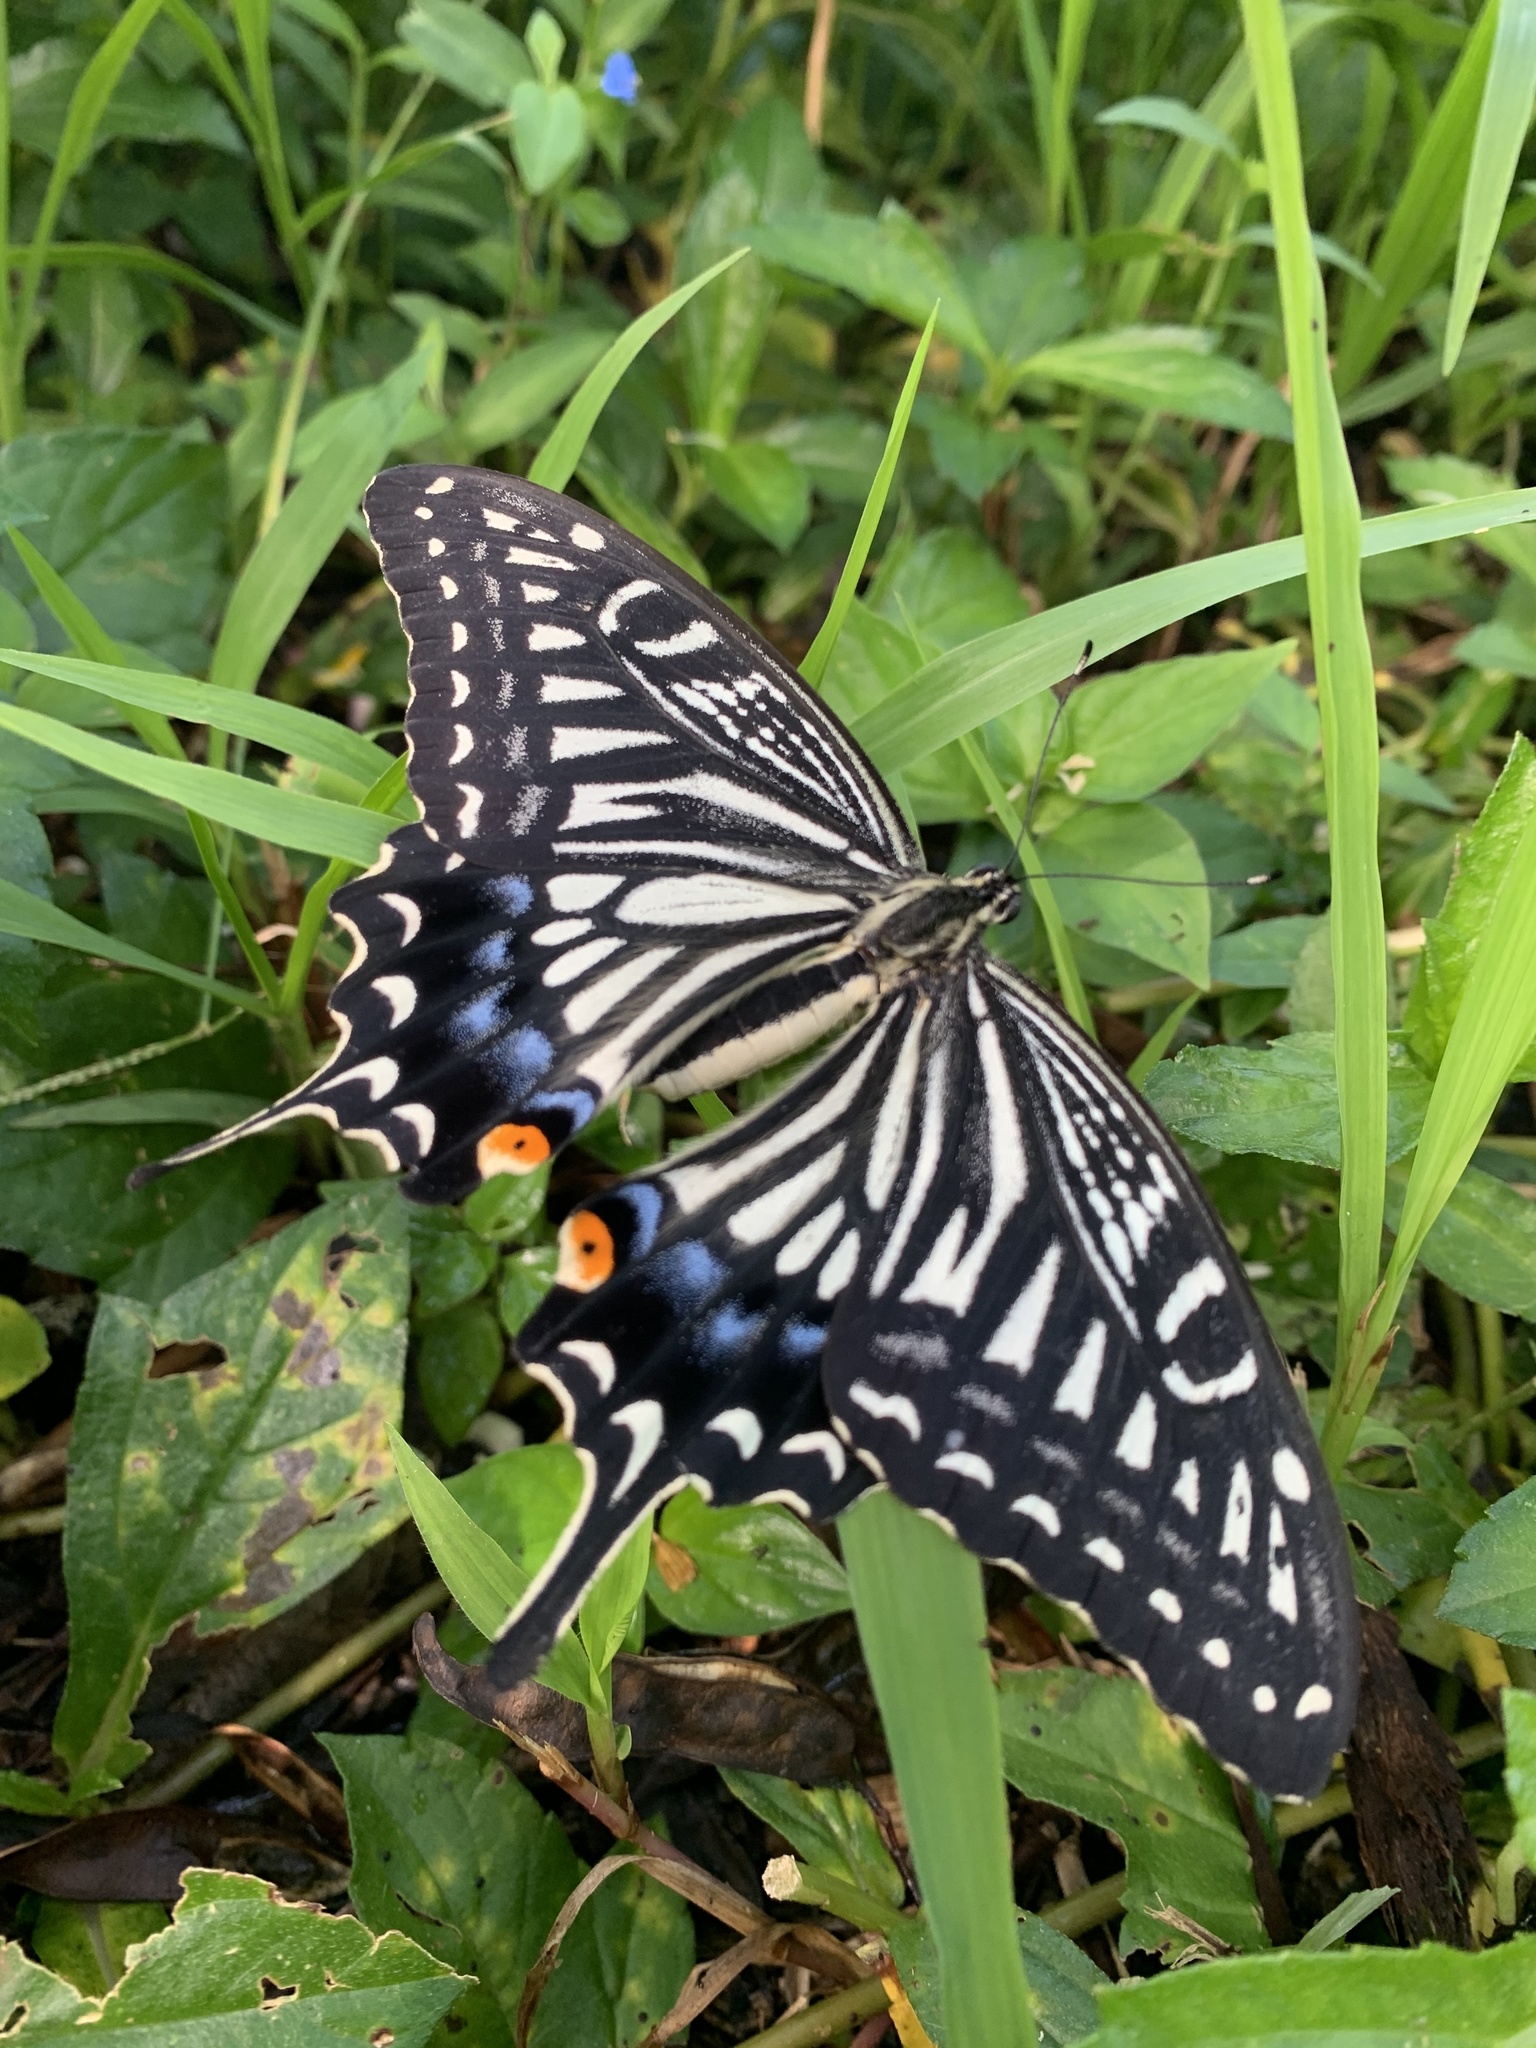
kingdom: Animalia
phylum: Arthropoda
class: Insecta
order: Lepidoptera
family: Papilionidae
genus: Papilio
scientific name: Papilio xuthus
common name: Asian swallowtail
